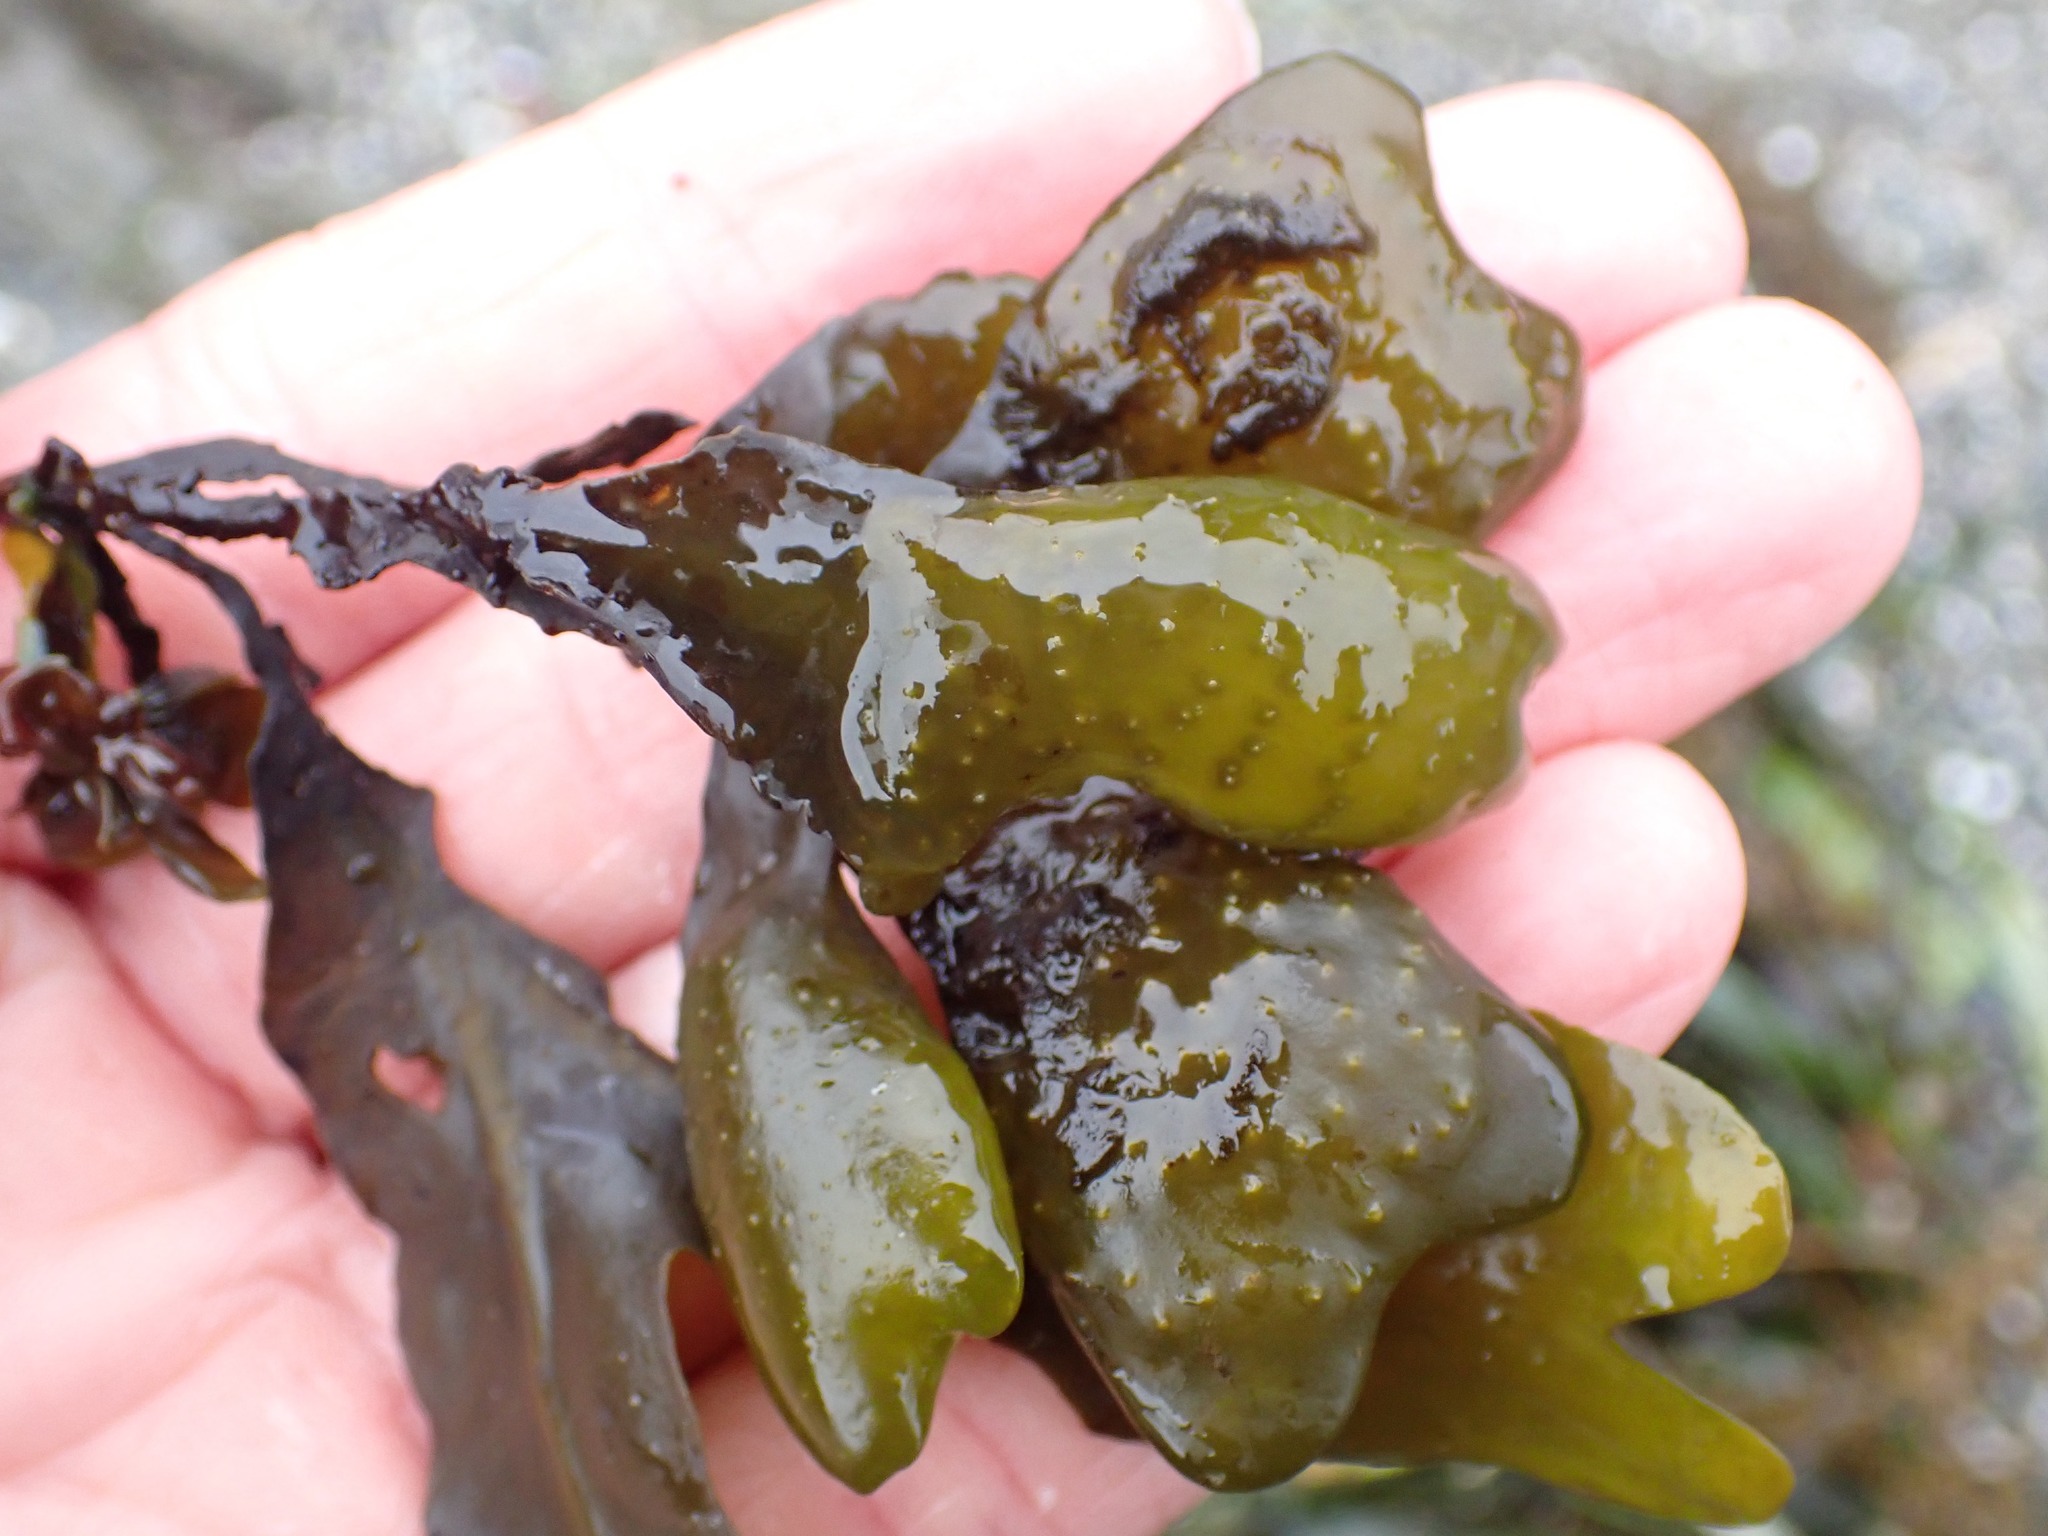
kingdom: Chromista
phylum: Ochrophyta
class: Phaeophyceae
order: Fucales
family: Fucaceae
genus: Fucus
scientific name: Fucus distichus
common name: Rockweed
